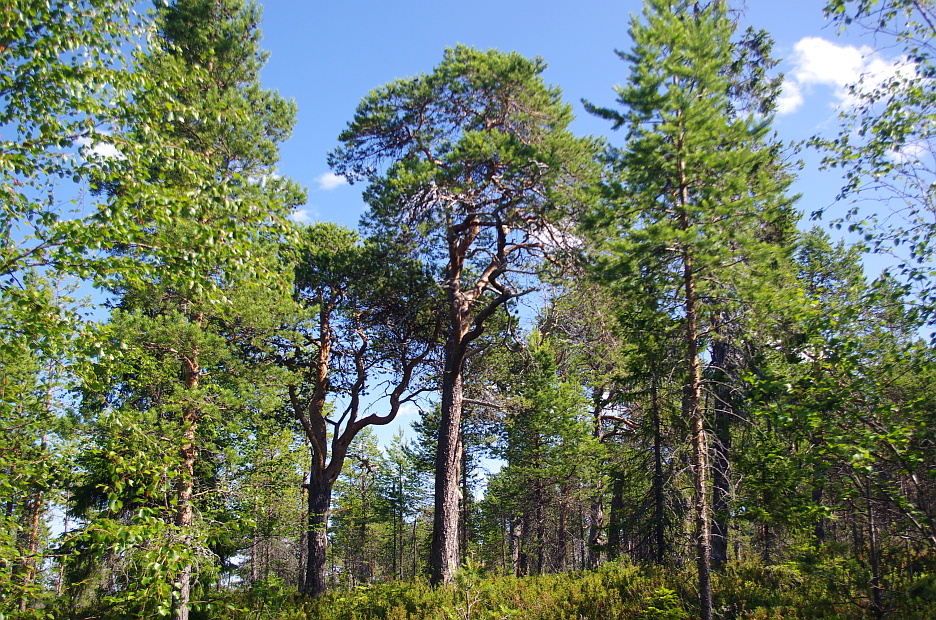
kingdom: Plantae
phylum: Tracheophyta
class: Pinopsida
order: Pinales
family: Pinaceae
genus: Pinus
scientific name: Pinus sylvestris
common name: Scots pine
